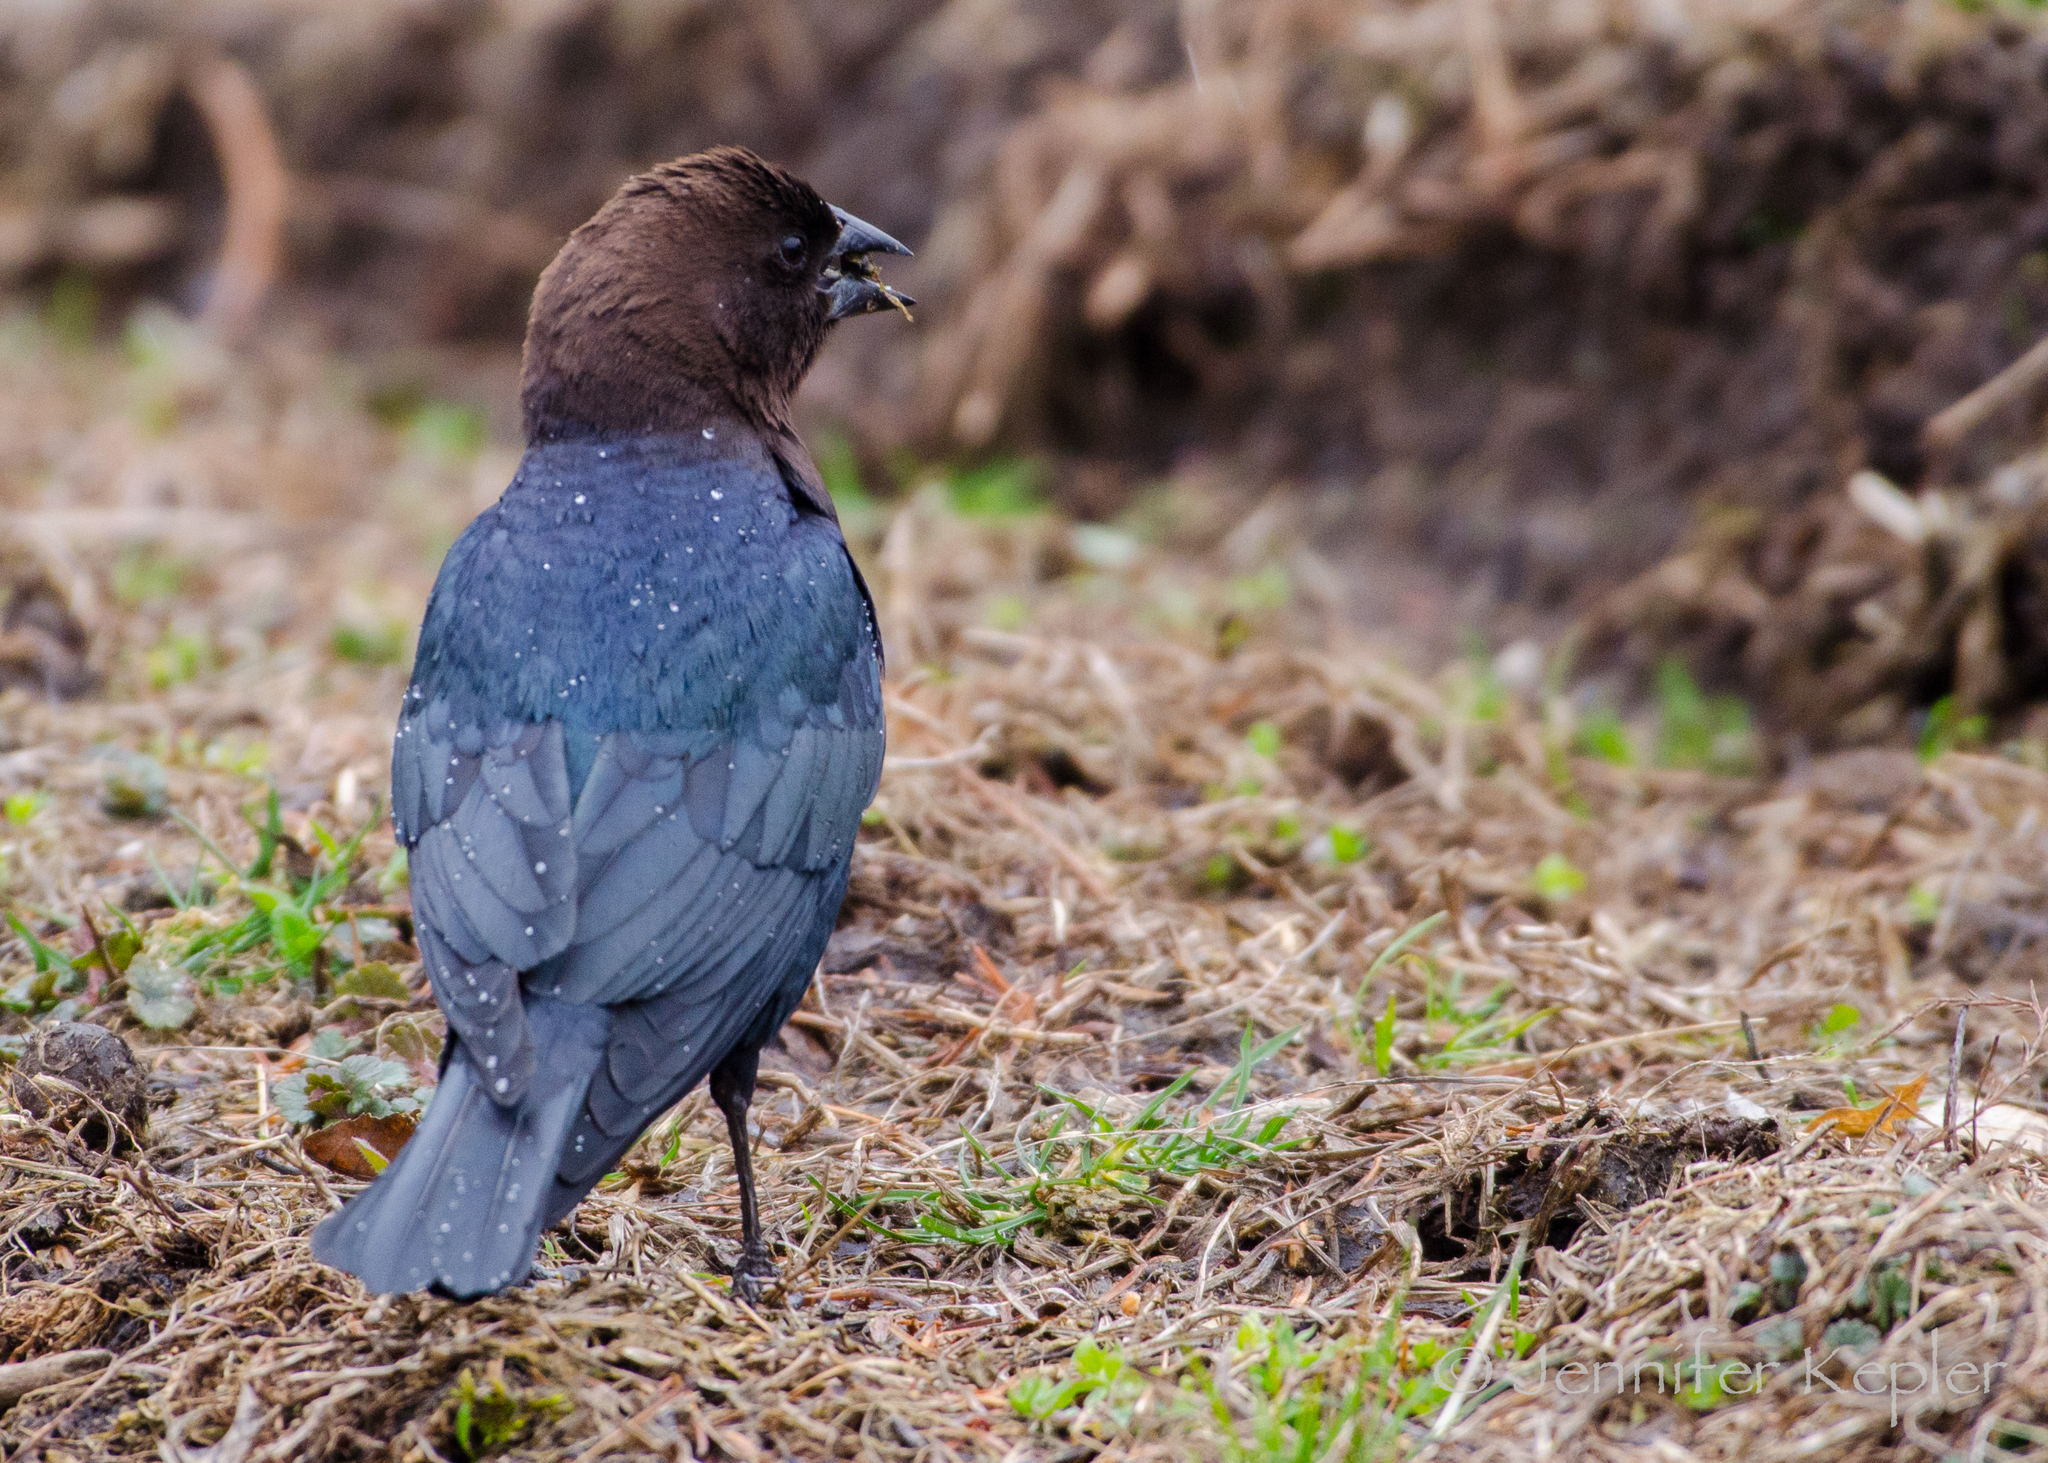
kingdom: Animalia
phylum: Chordata
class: Aves
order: Passeriformes
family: Icteridae
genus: Molothrus
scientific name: Molothrus ater
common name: Brown-headed cowbird
